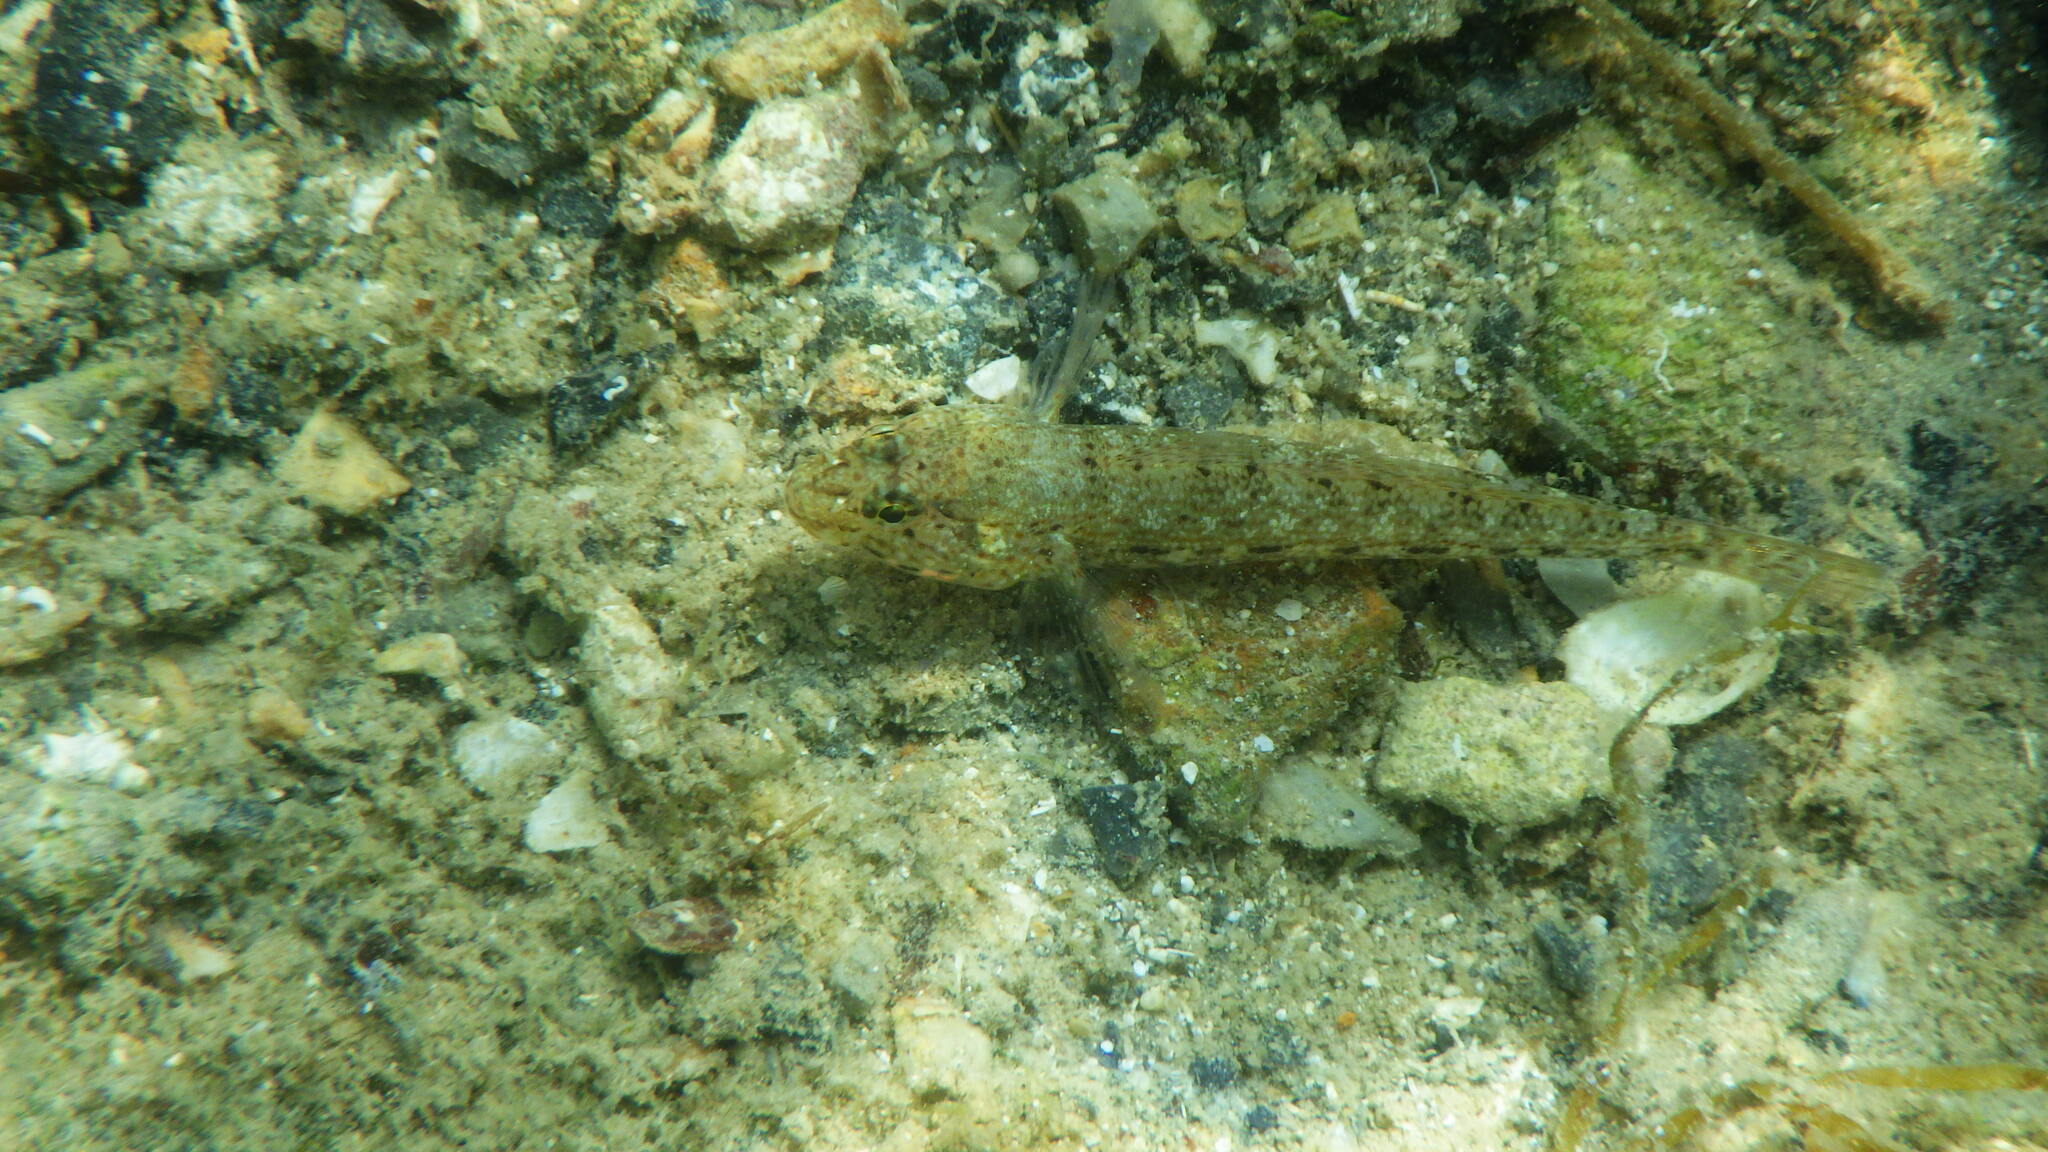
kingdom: Animalia
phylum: Chordata
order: Perciformes
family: Gobiidae
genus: Gobius
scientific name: Gobius incognitus
